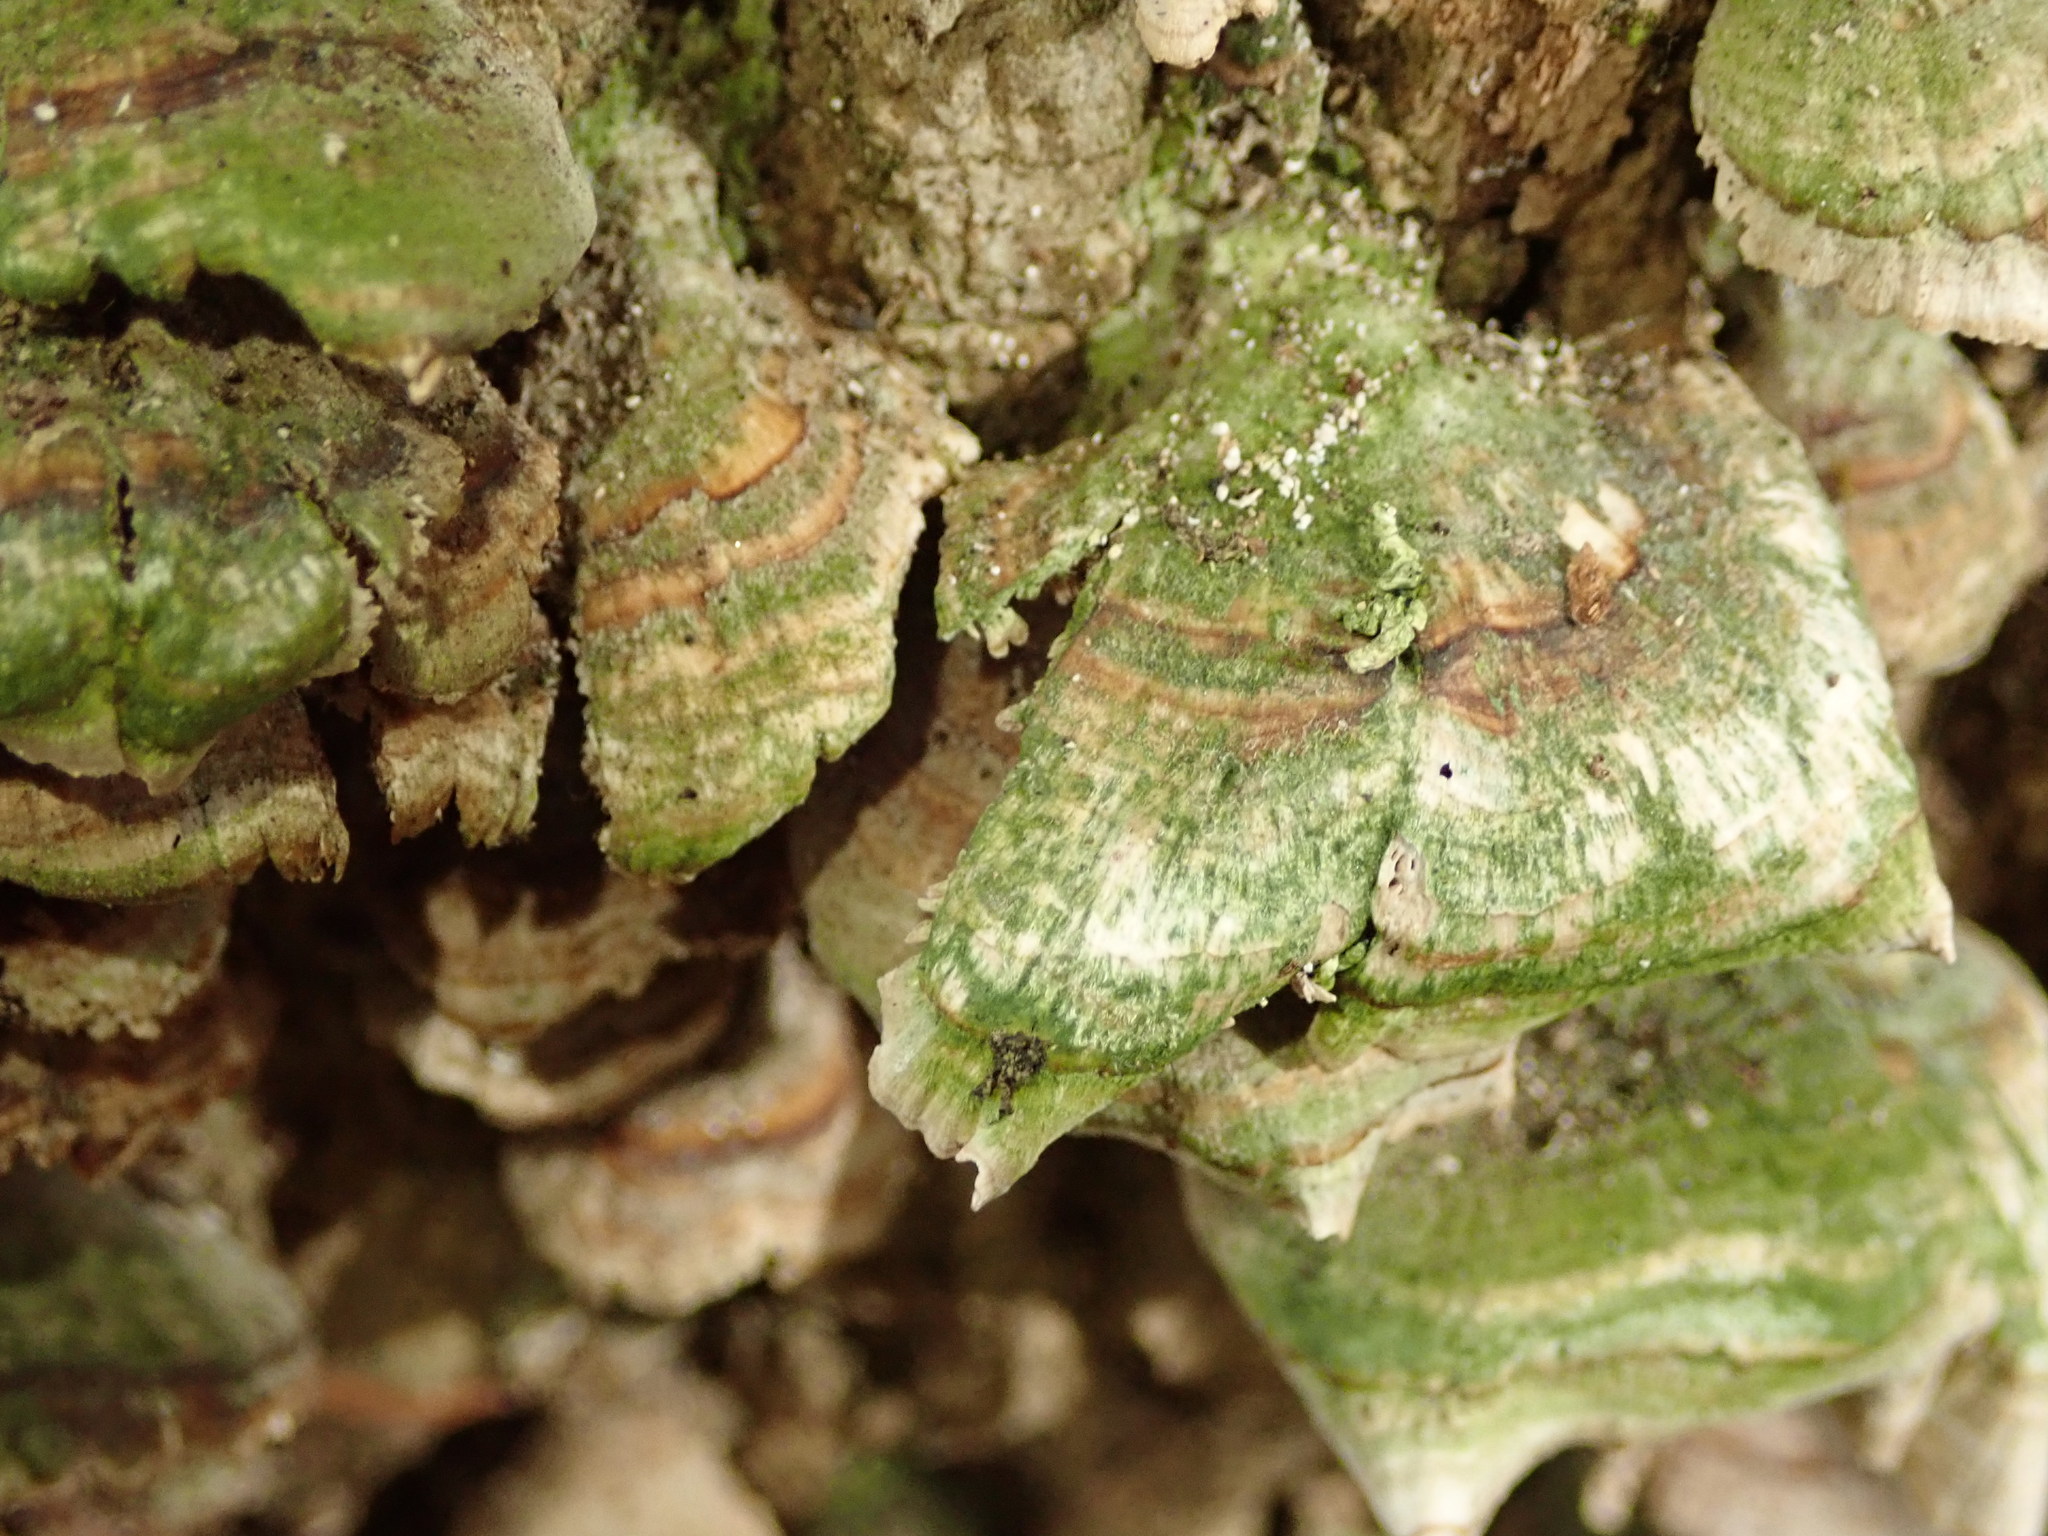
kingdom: Fungi
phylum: Basidiomycota
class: Agaricomycetes
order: Hymenochaetales
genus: Trichaptum
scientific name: Trichaptum biforme
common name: Violet-toothed polypore
